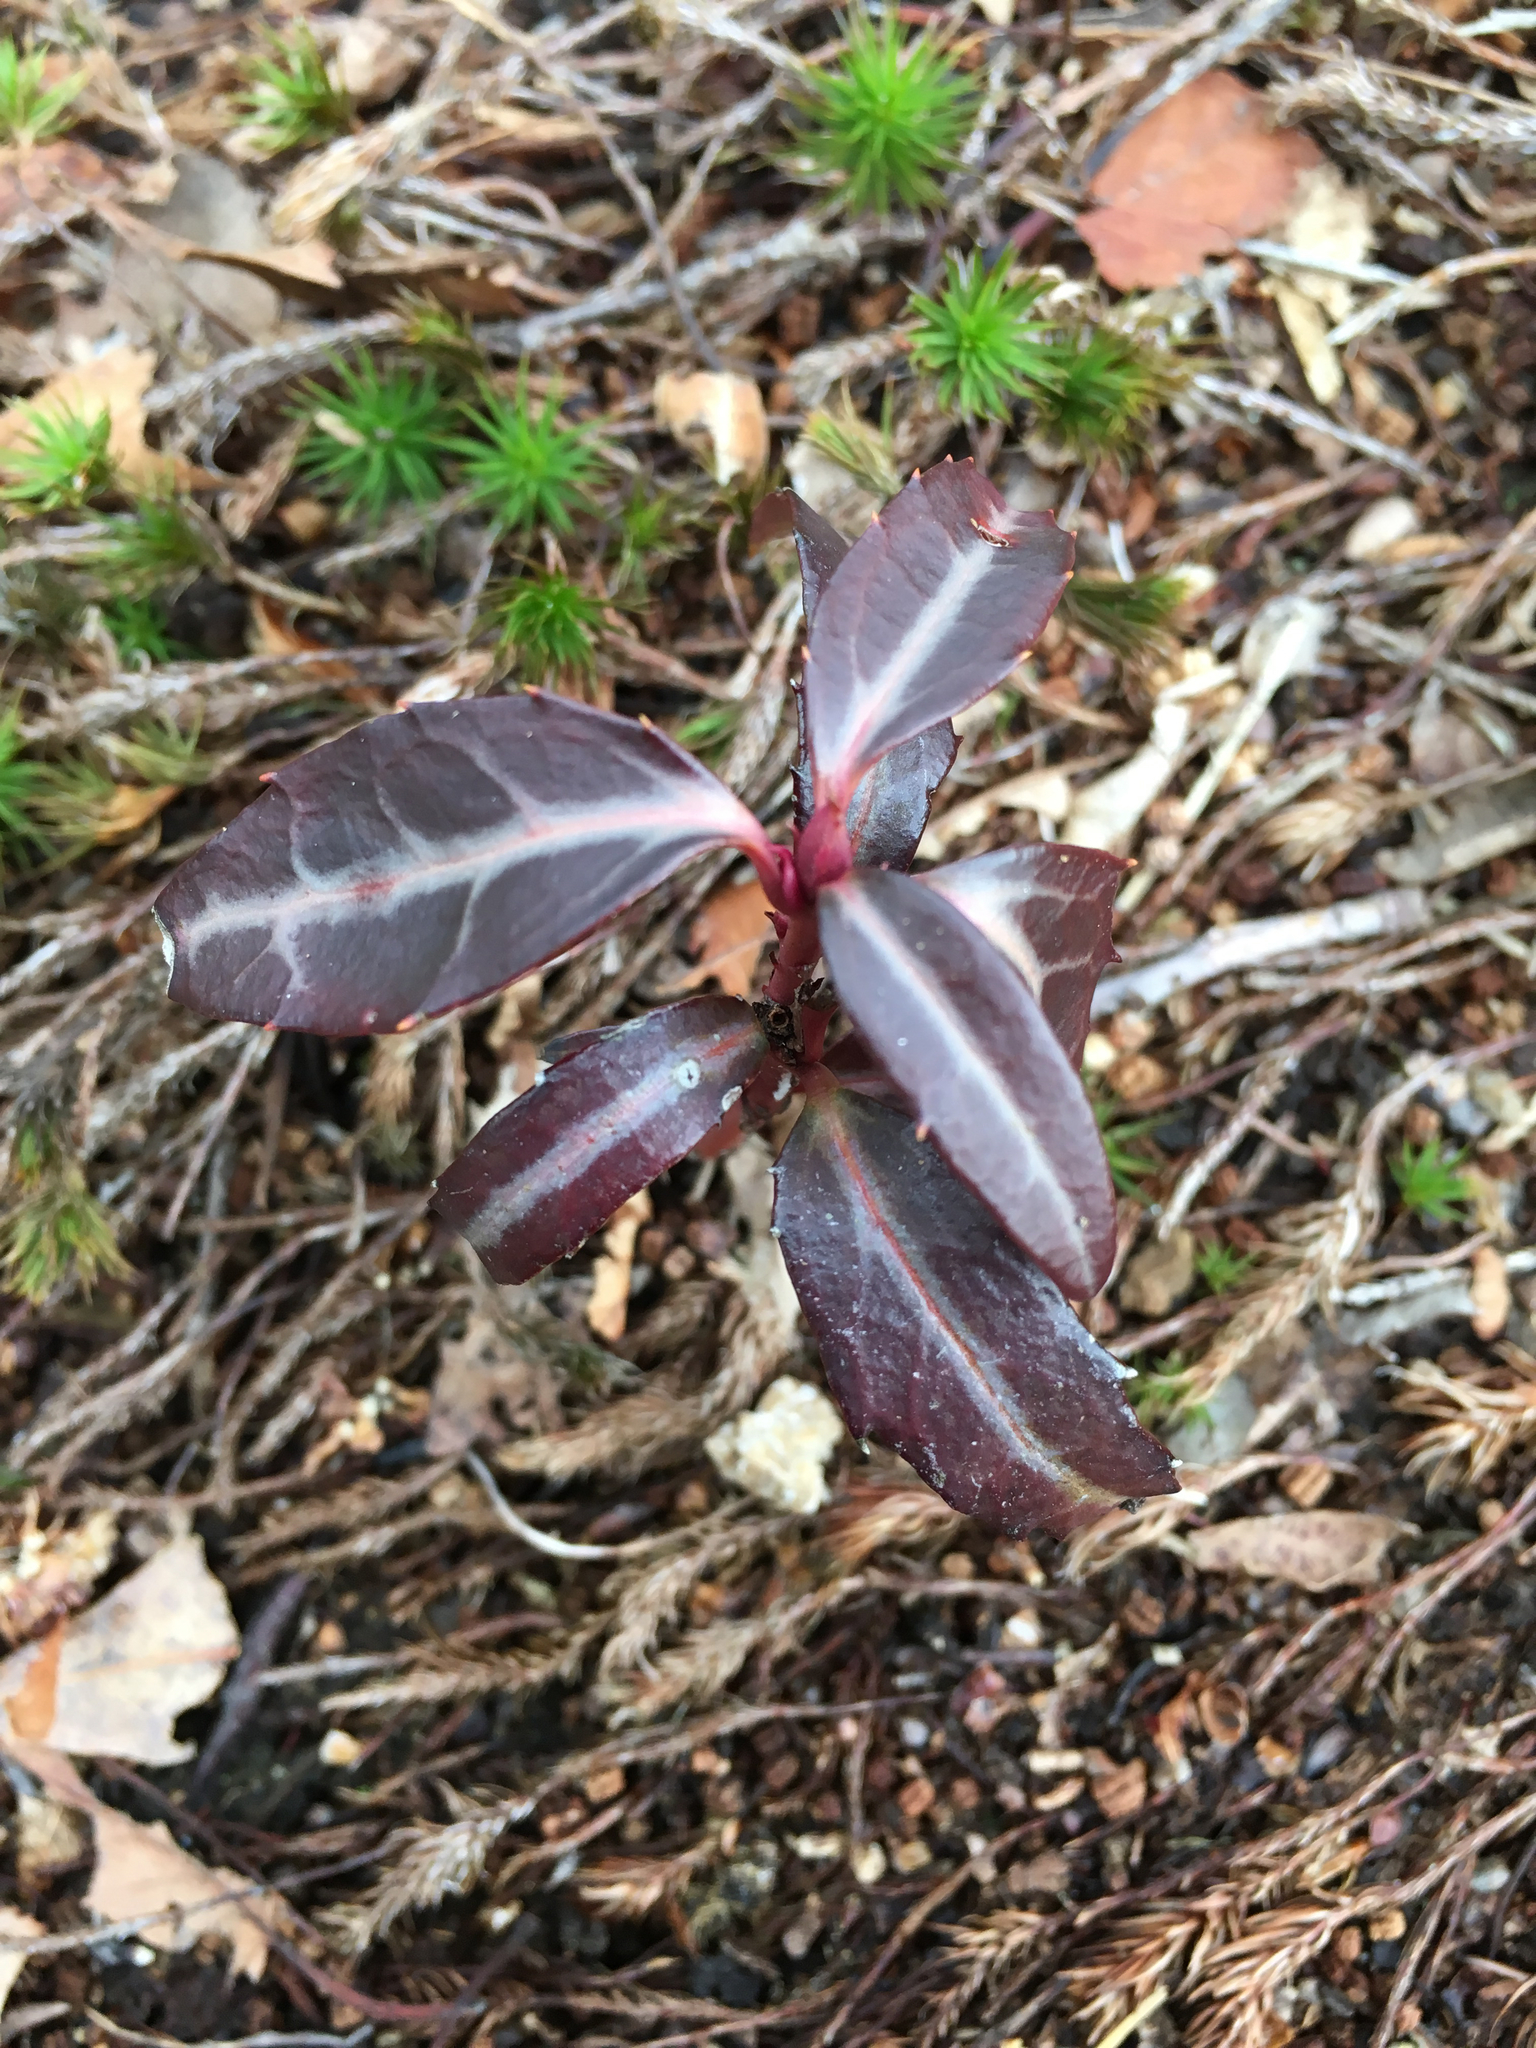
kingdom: Plantae
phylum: Tracheophyta
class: Magnoliopsida
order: Ericales
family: Ericaceae
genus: Chimaphila
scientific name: Chimaphila maculata
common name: Spotted pipsissewa
